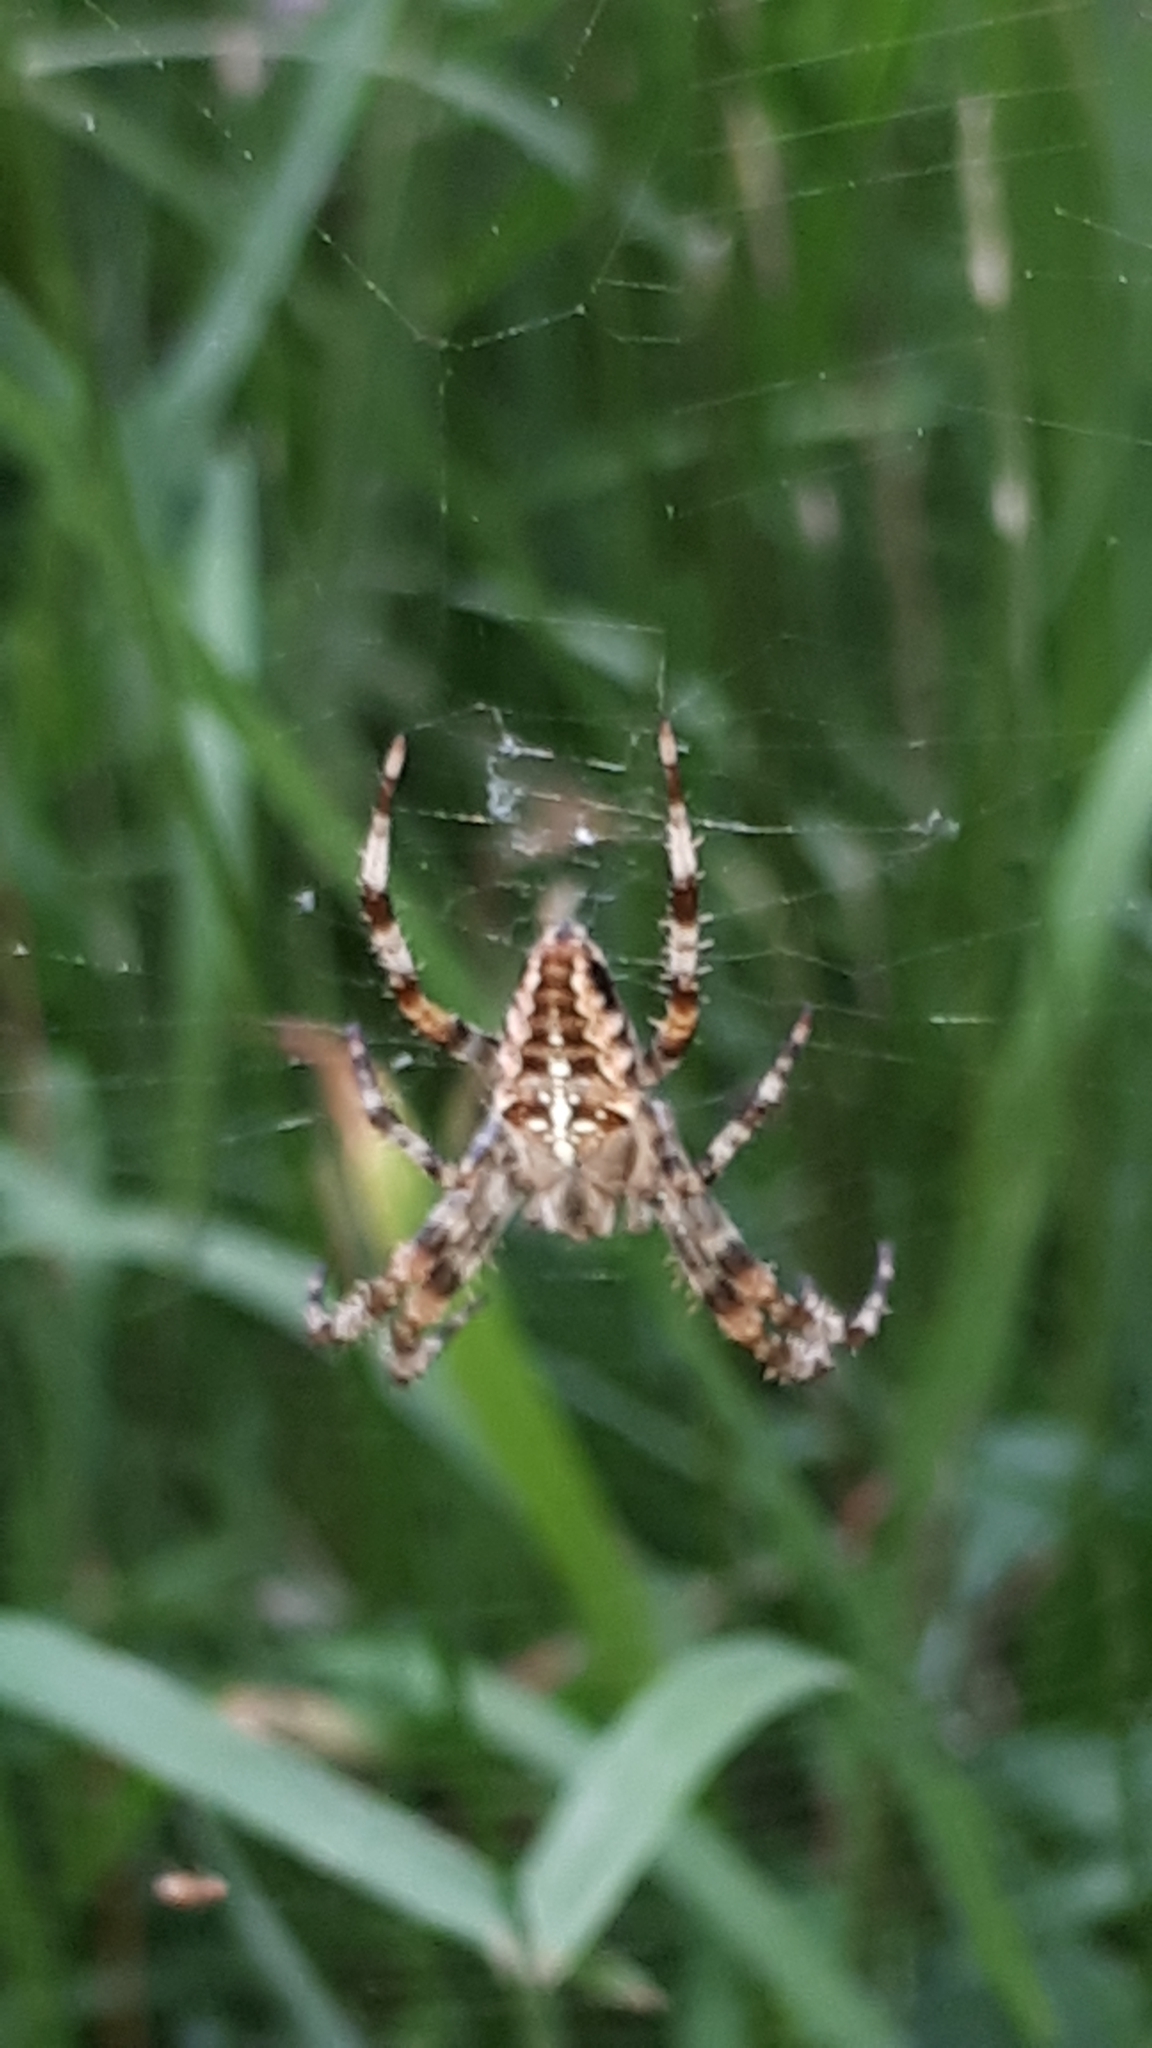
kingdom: Animalia
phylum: Arthropoda
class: Arachnida
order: Araneae
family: Araneidae
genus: Araneus
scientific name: Araneus diadematus
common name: Cross orbweaver
